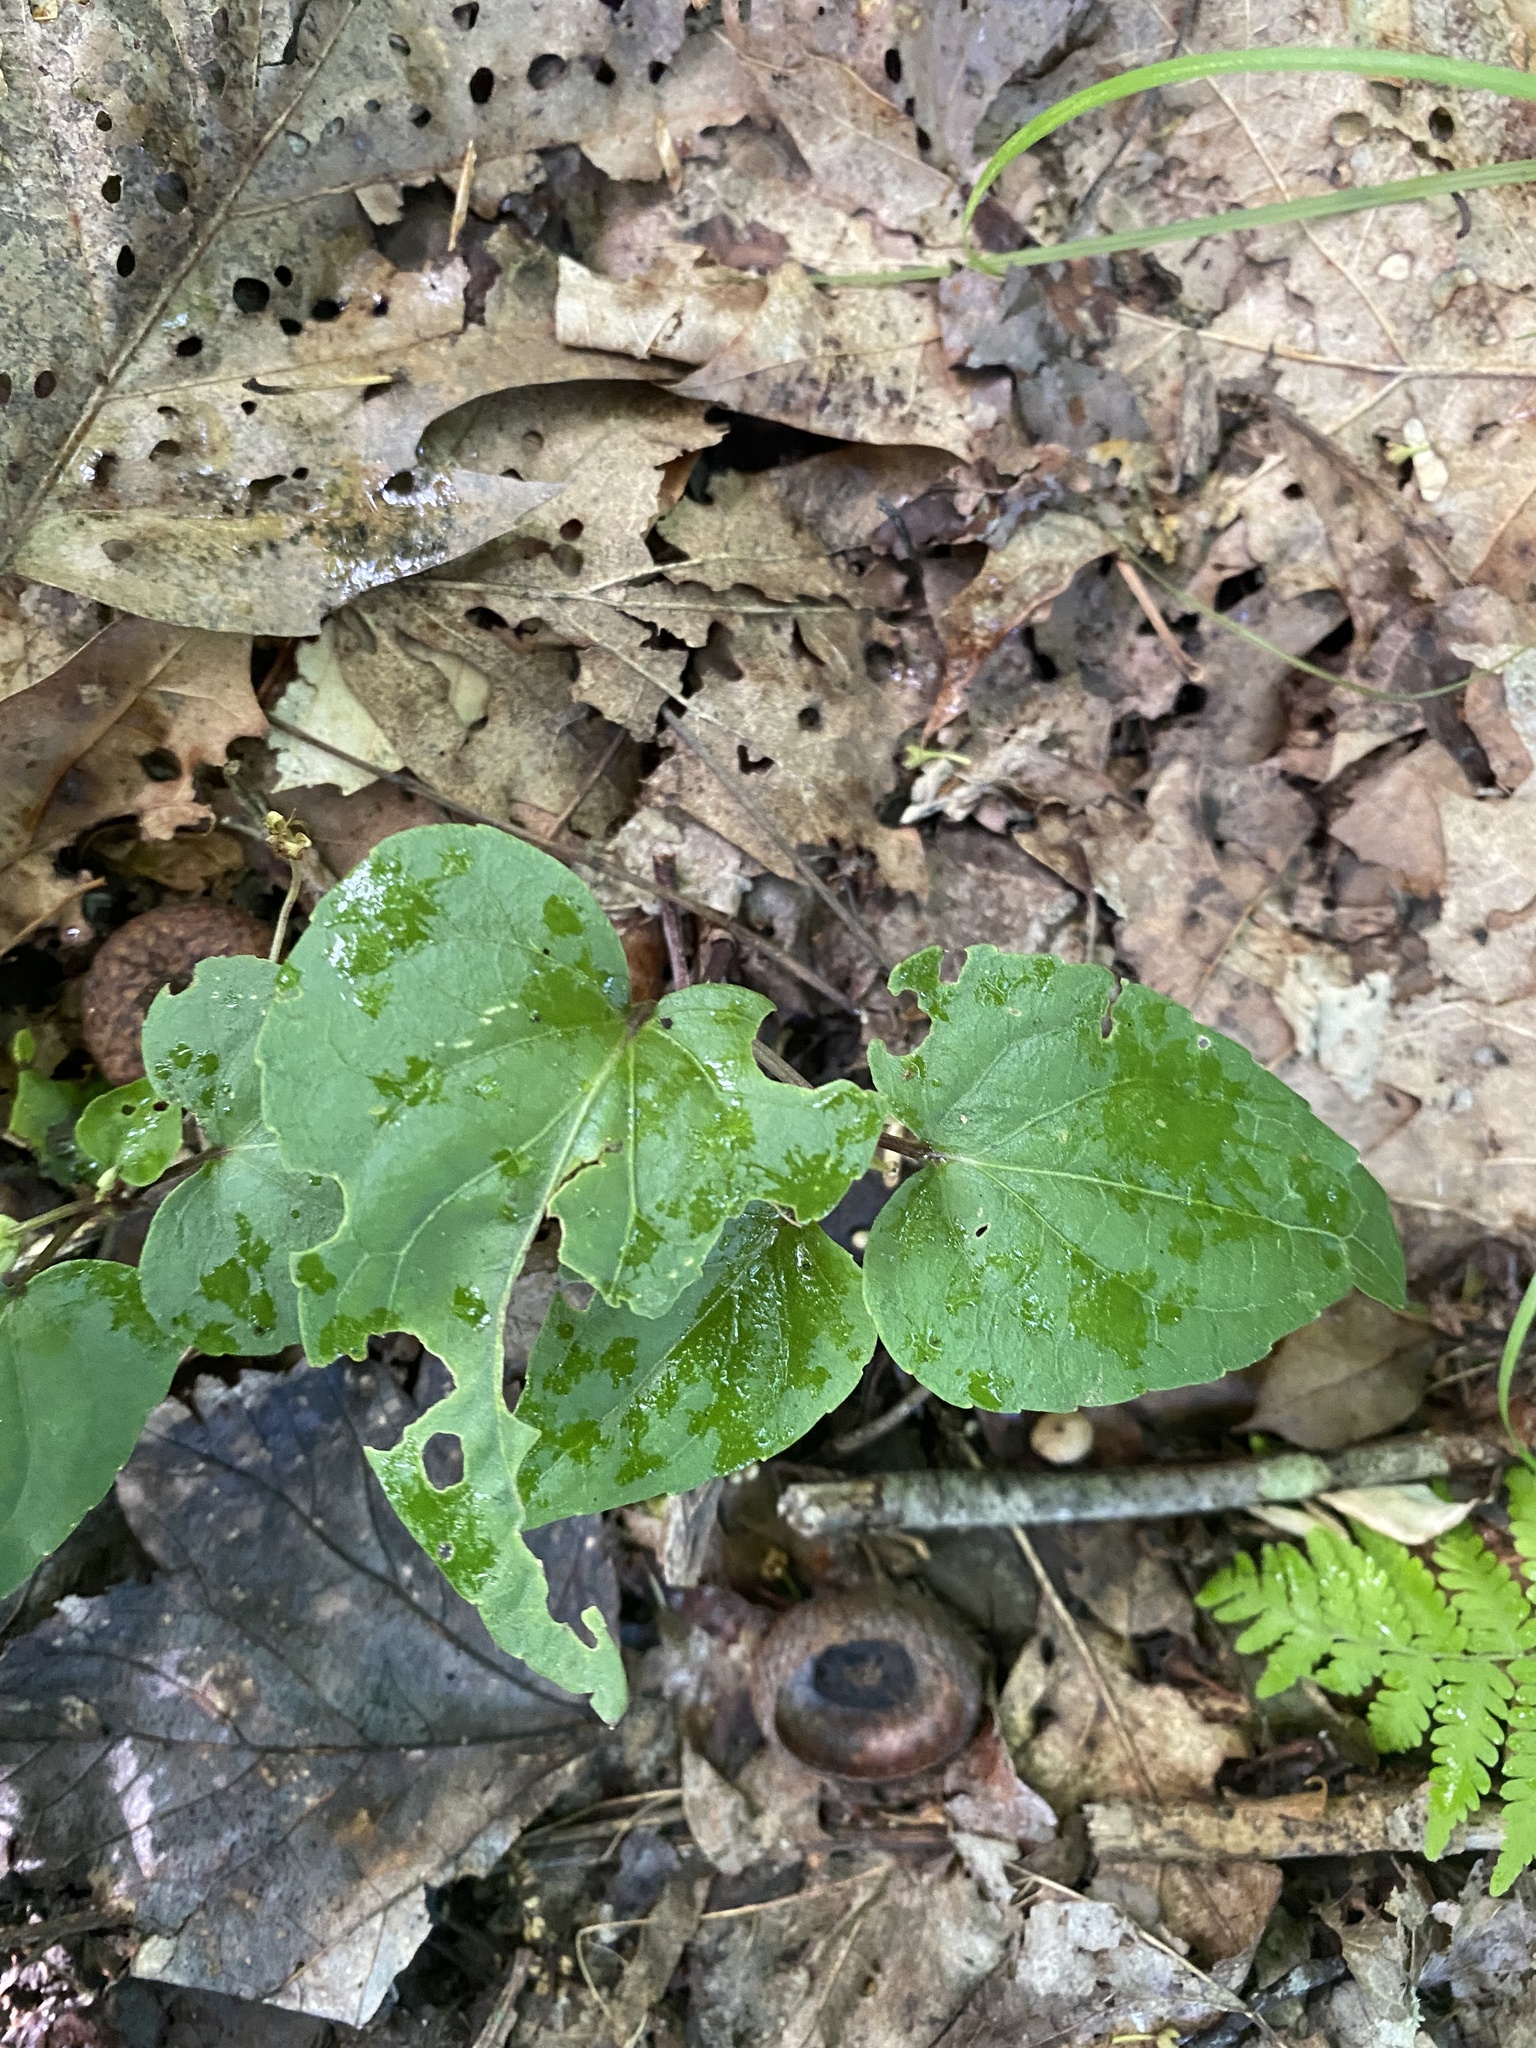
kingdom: Plantae
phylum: Tracheophyta
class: Magnoliopsida
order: Malpighiales
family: Violaceae
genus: Viola
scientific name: Viola hastata
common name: Spear-leaf violet
